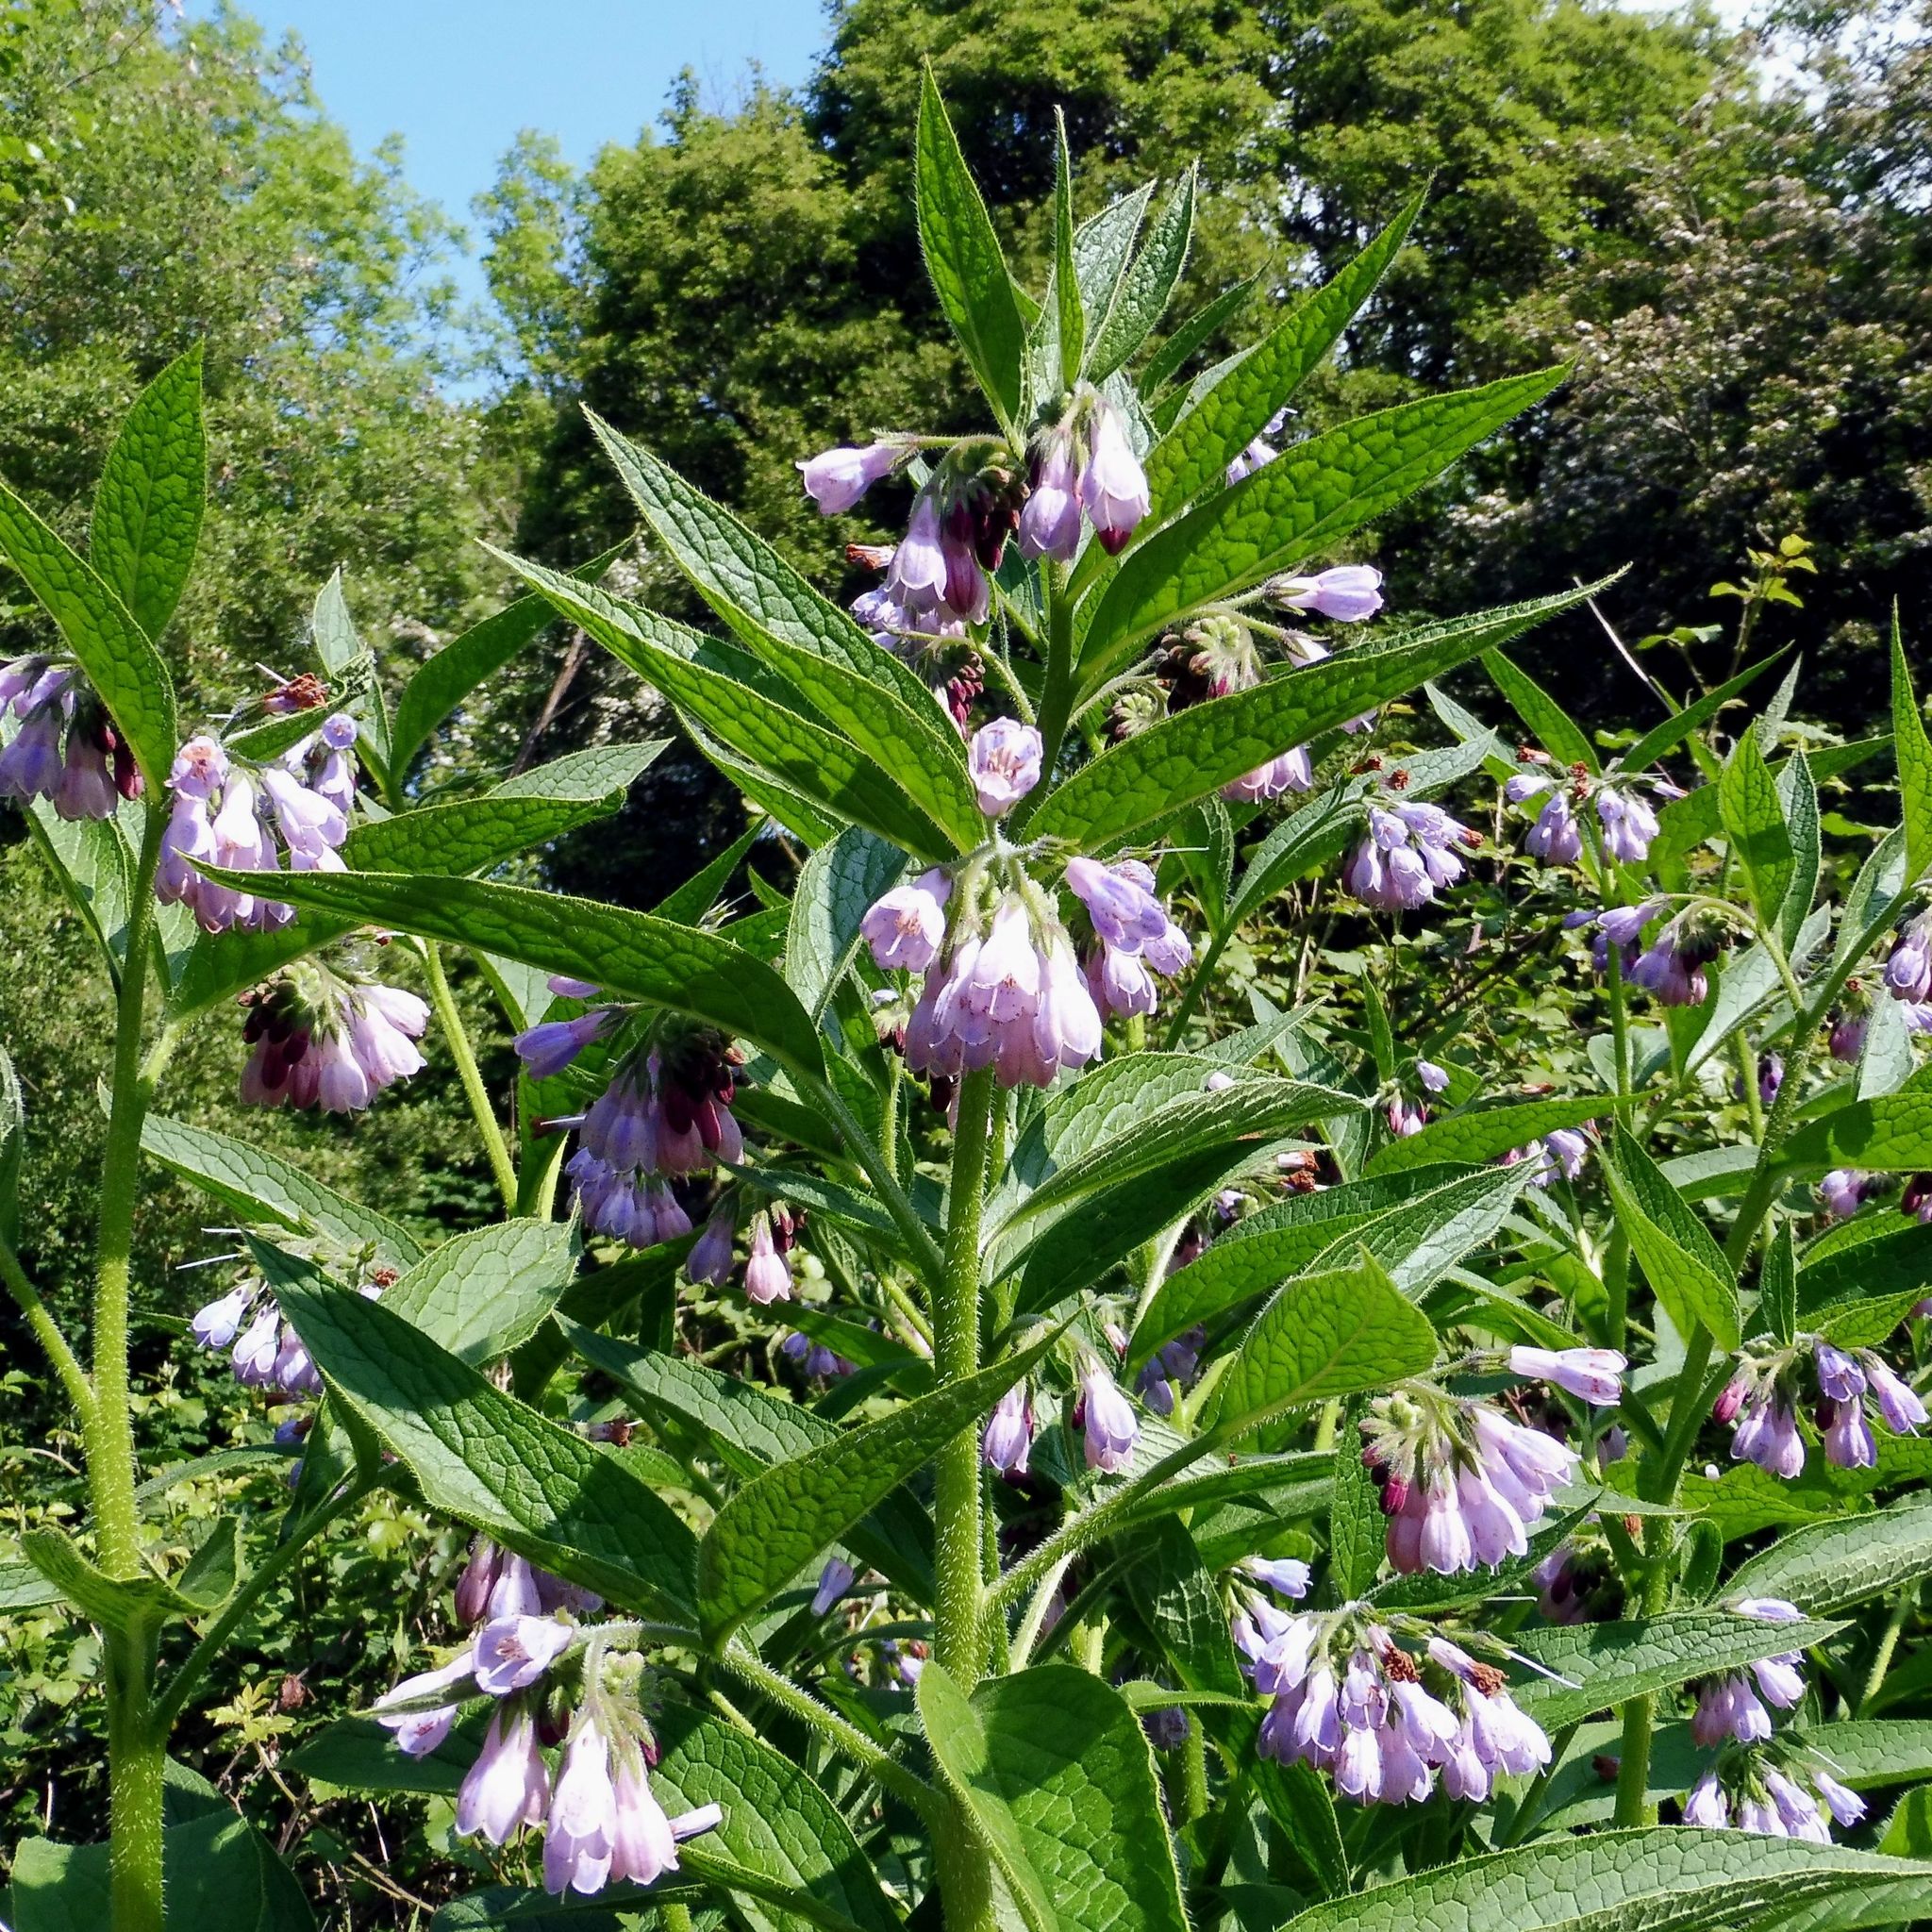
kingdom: Plantae
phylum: Tracheophyta
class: Magnoliopsida
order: Boraginales
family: Boraginaceae
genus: Symphytum
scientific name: Symphytum uplandicum
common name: Russian comfrey
